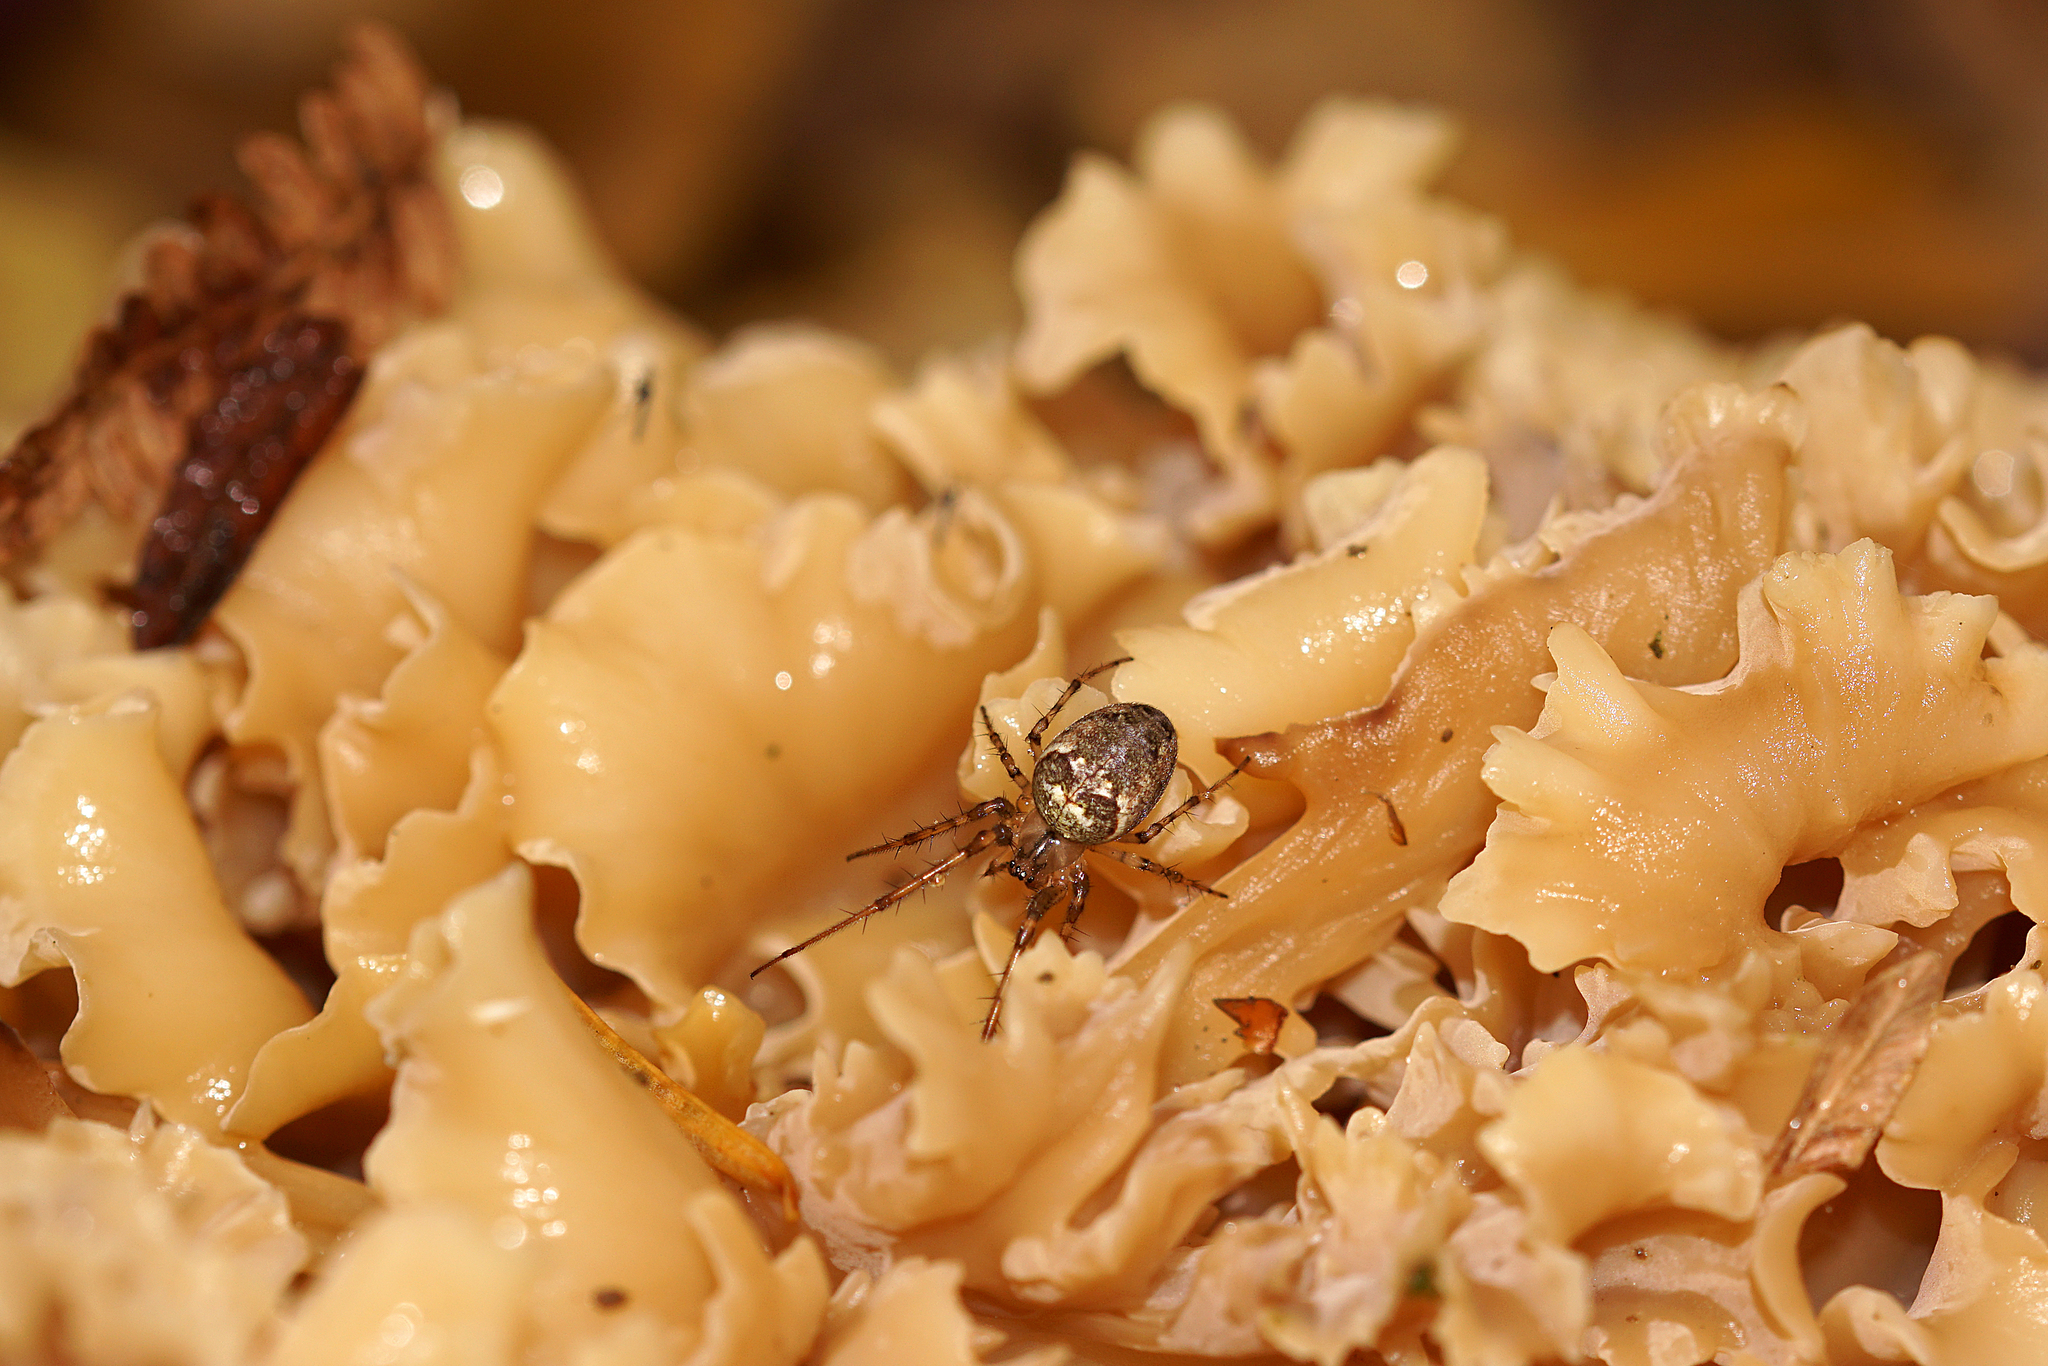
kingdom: Animalia
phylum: Arthropoda
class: Arachnida
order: Araneae
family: Tetragnathidae
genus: Metellina
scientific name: Metellina
